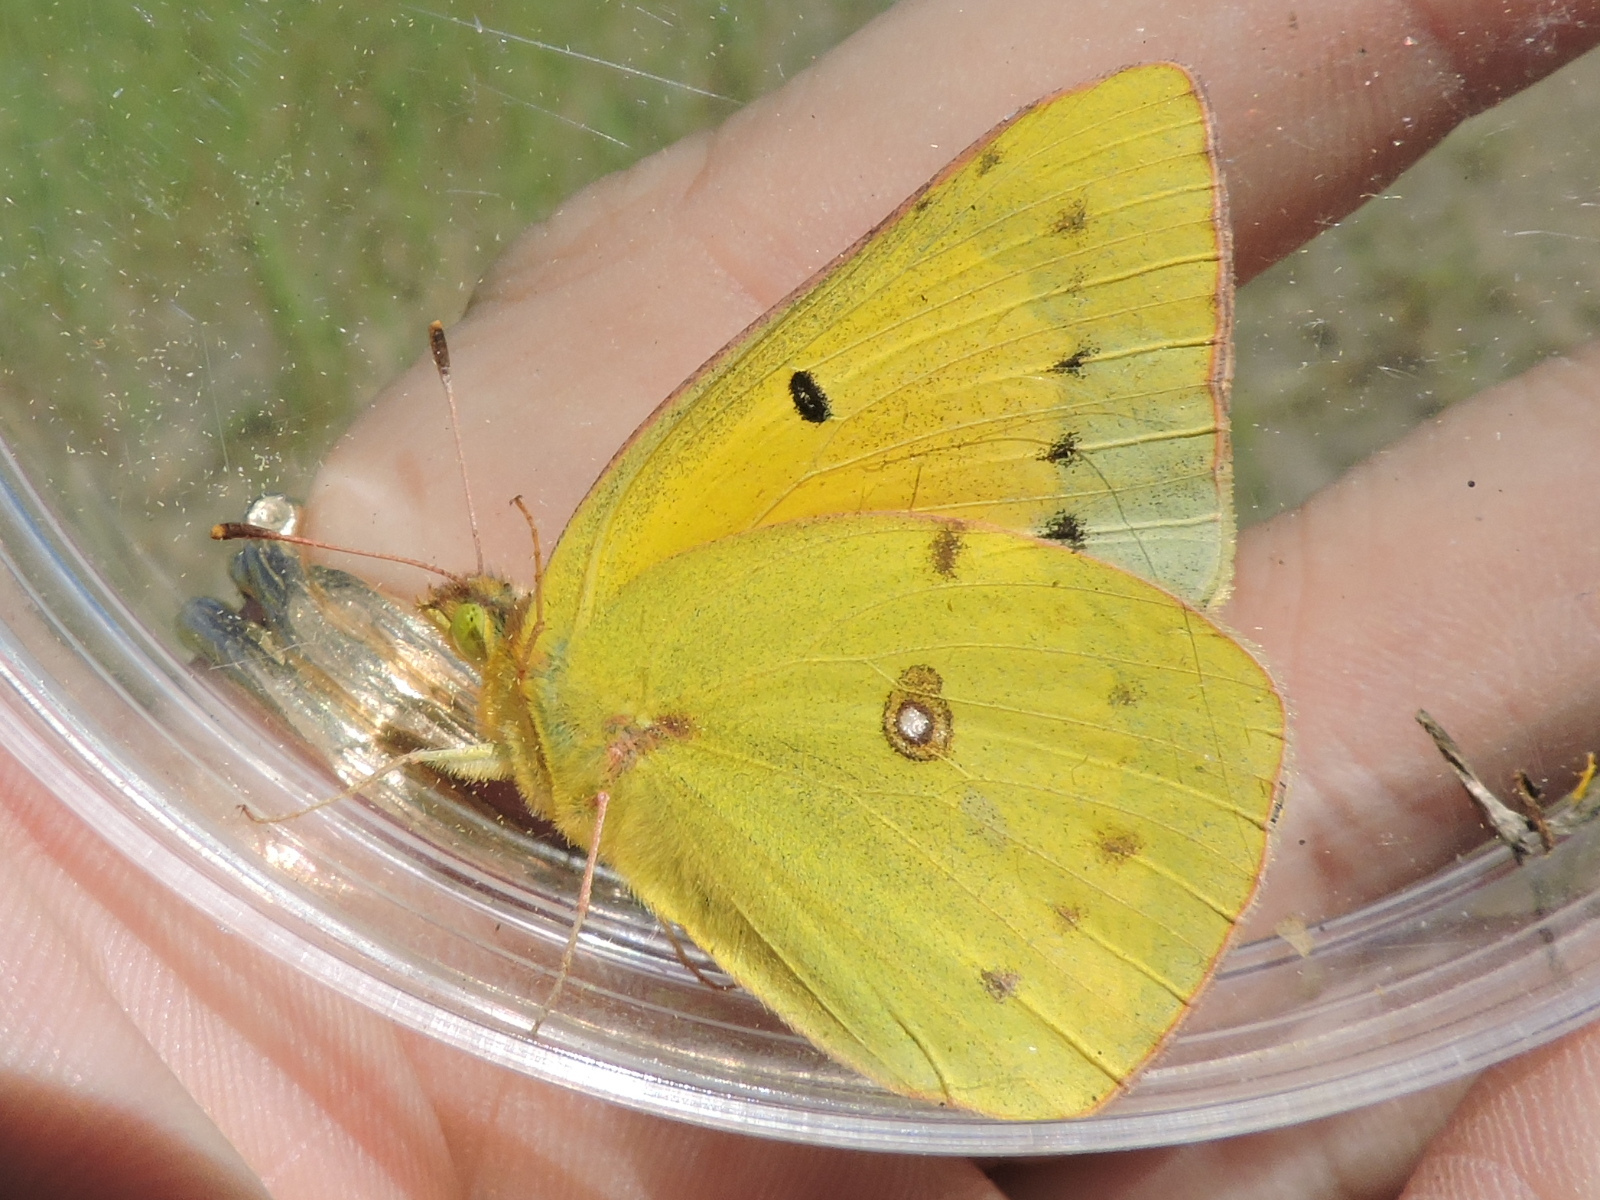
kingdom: Animalia
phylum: Arthropoda
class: Insecta
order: Lepidoptera
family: Pieridae
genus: Colias
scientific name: Colias eurytheme
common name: Alfalfa butterfly
